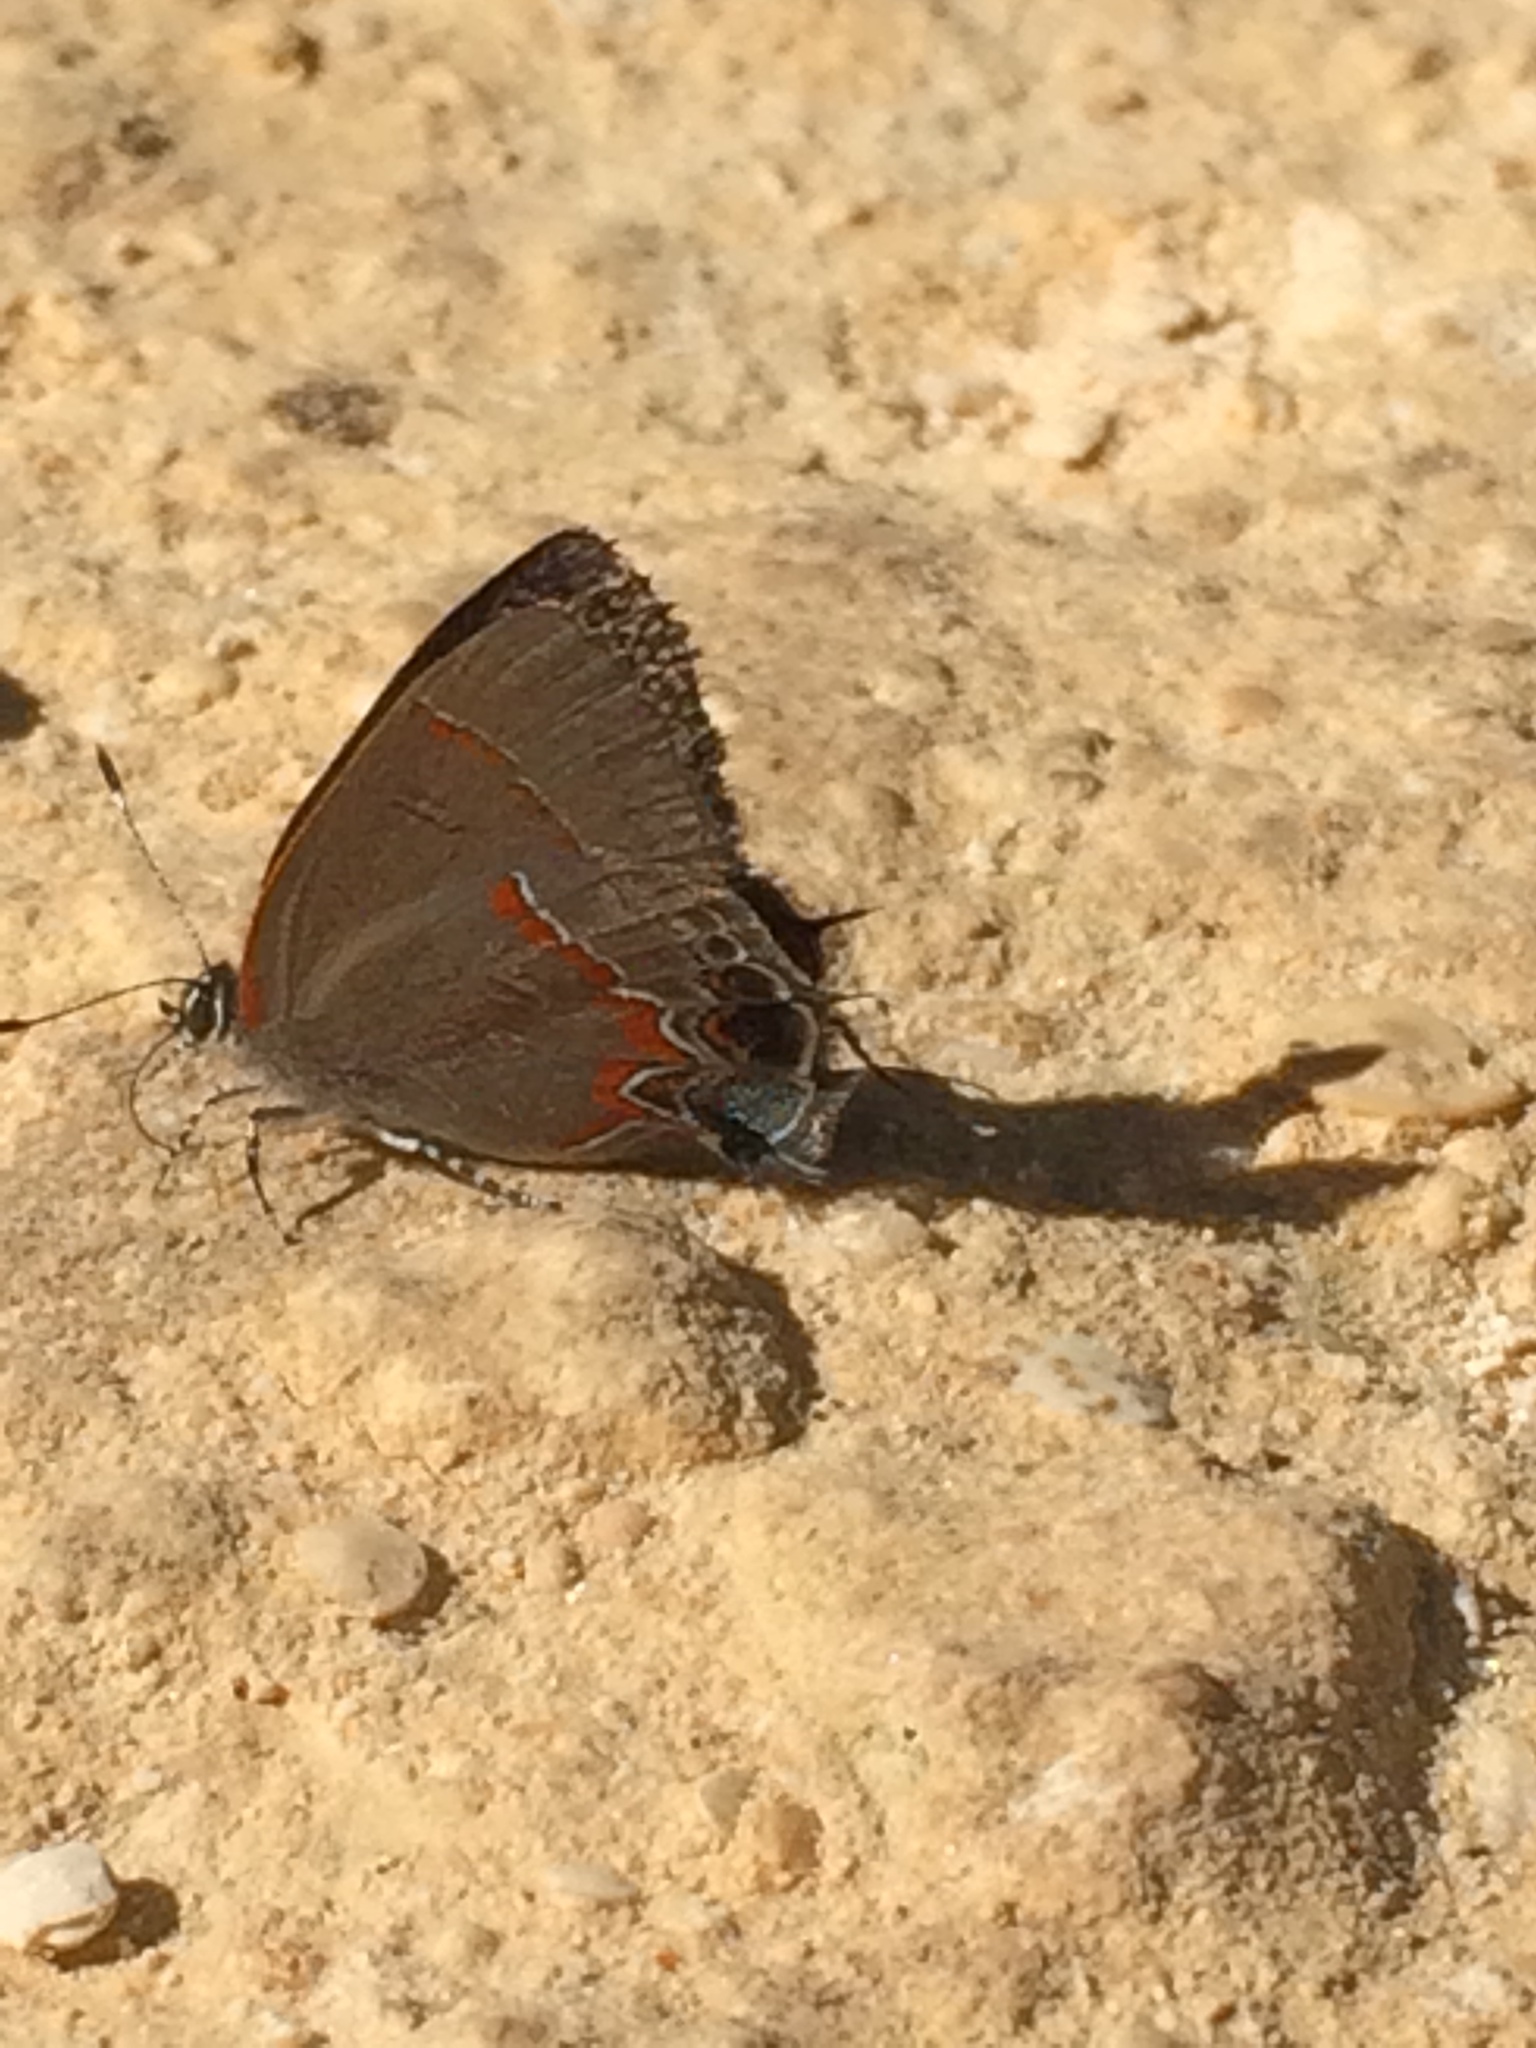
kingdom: Animalia
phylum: Arthropoda
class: Insecta
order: Lepidoptera
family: Lycaenidae
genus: Calycopis
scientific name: Calycopis cecrops
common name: Red-banded hairstreak
